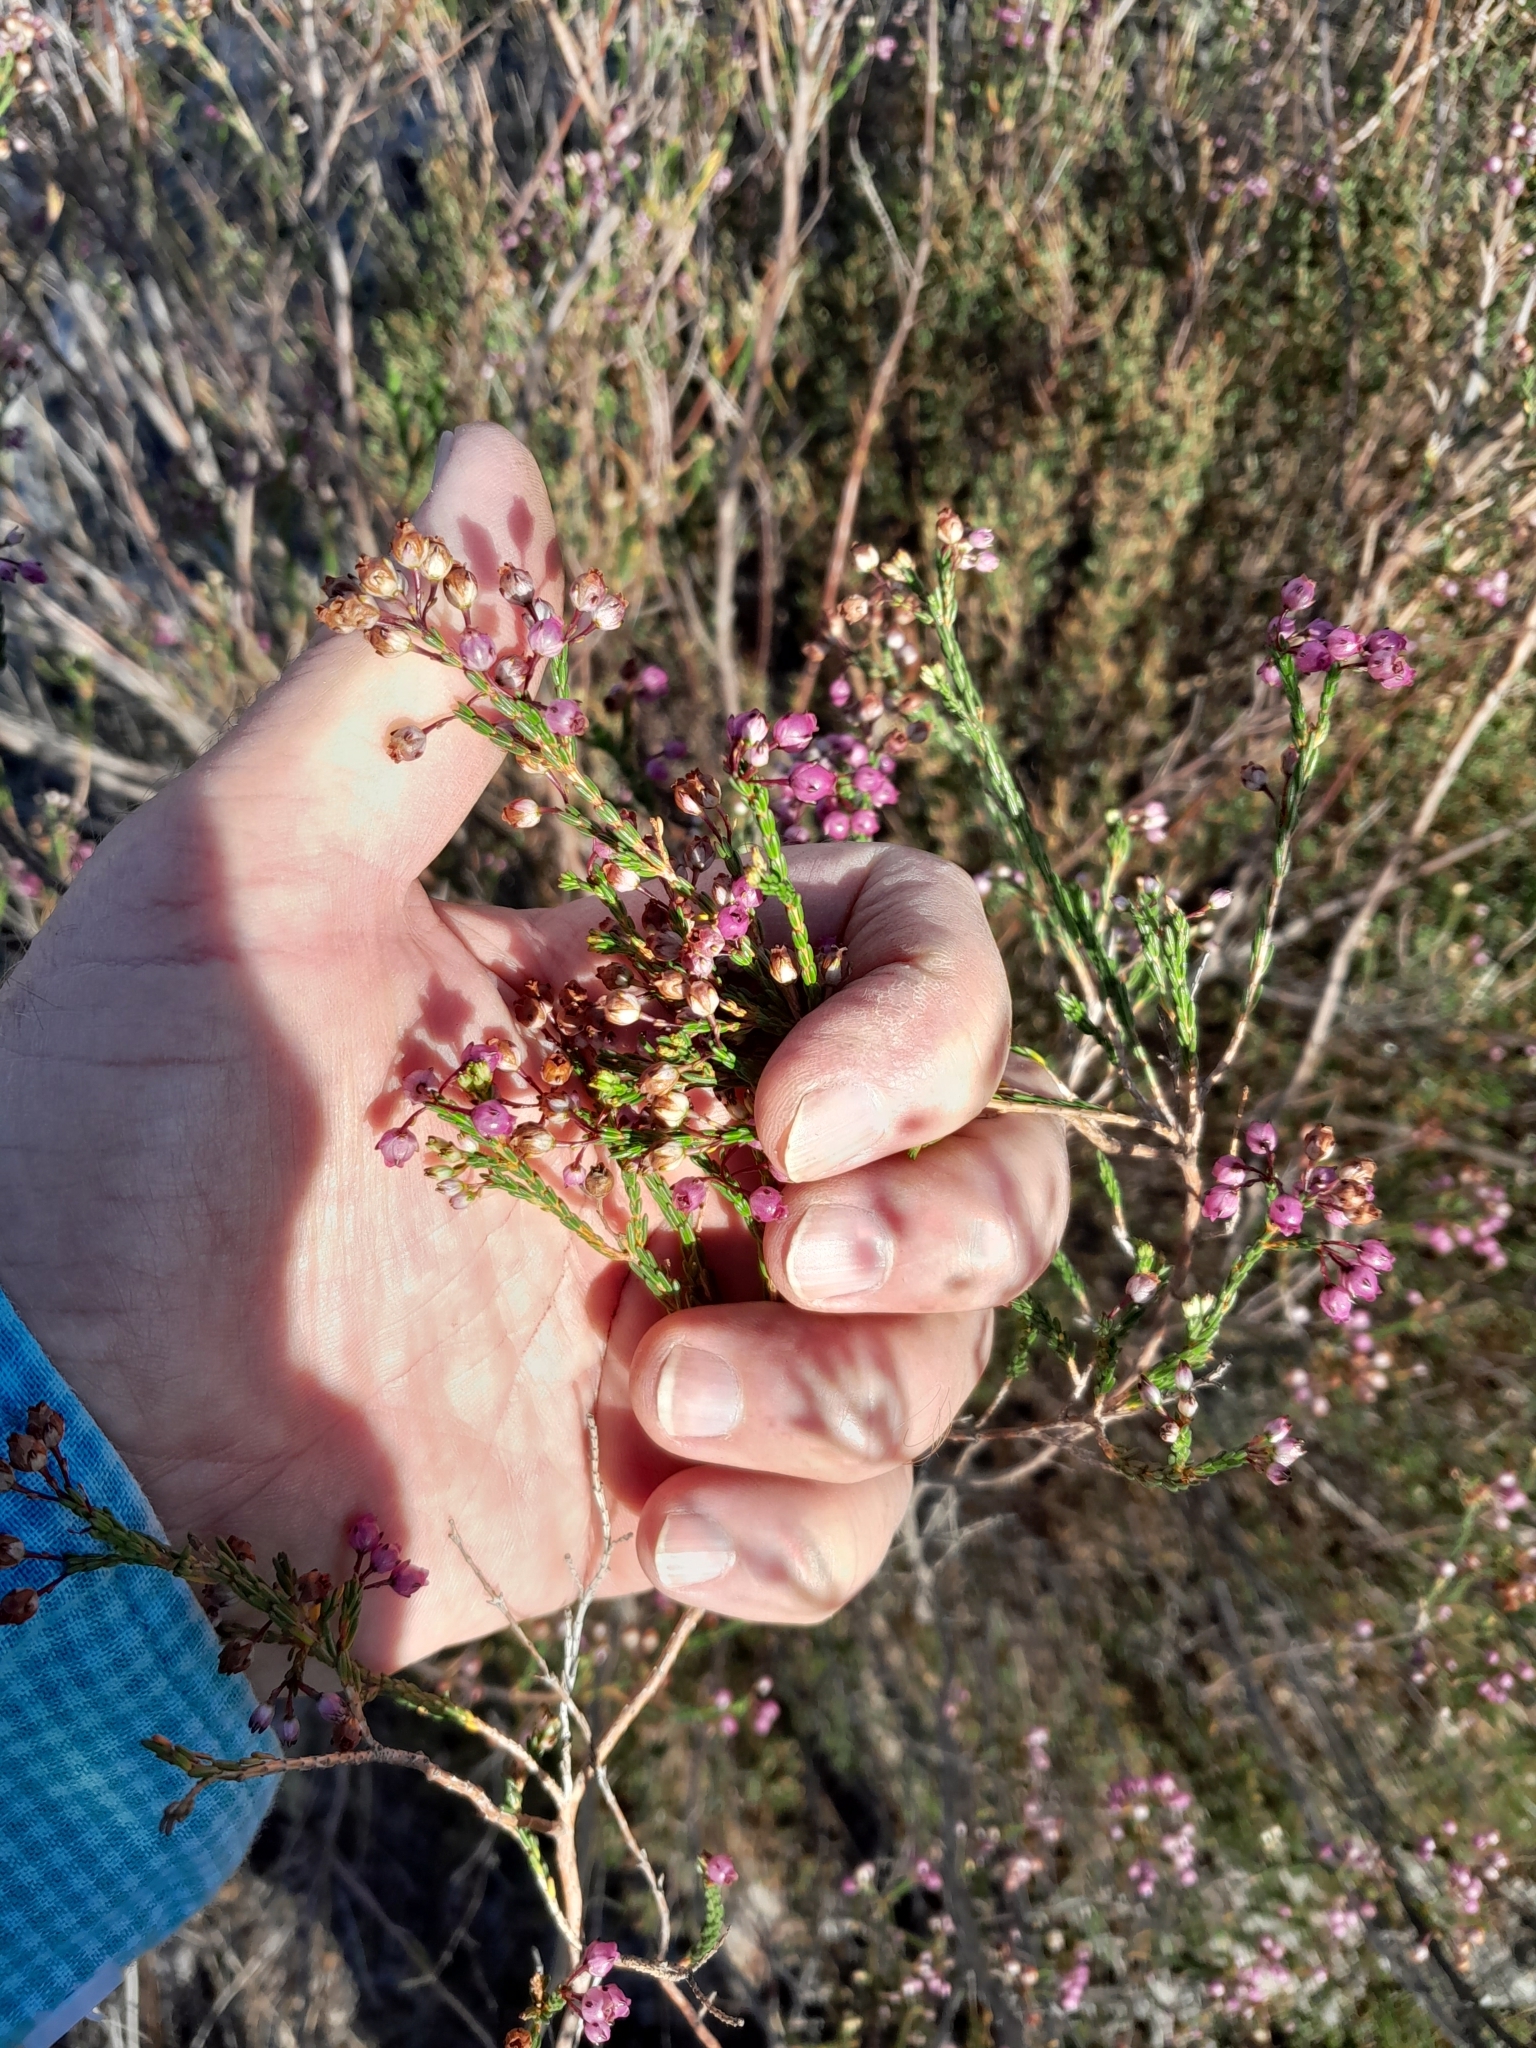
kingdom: Plantae
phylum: Tracheophyta
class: Magnoliopsida
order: Ericales
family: Ericaceae
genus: Erica
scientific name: Erica ferrea
